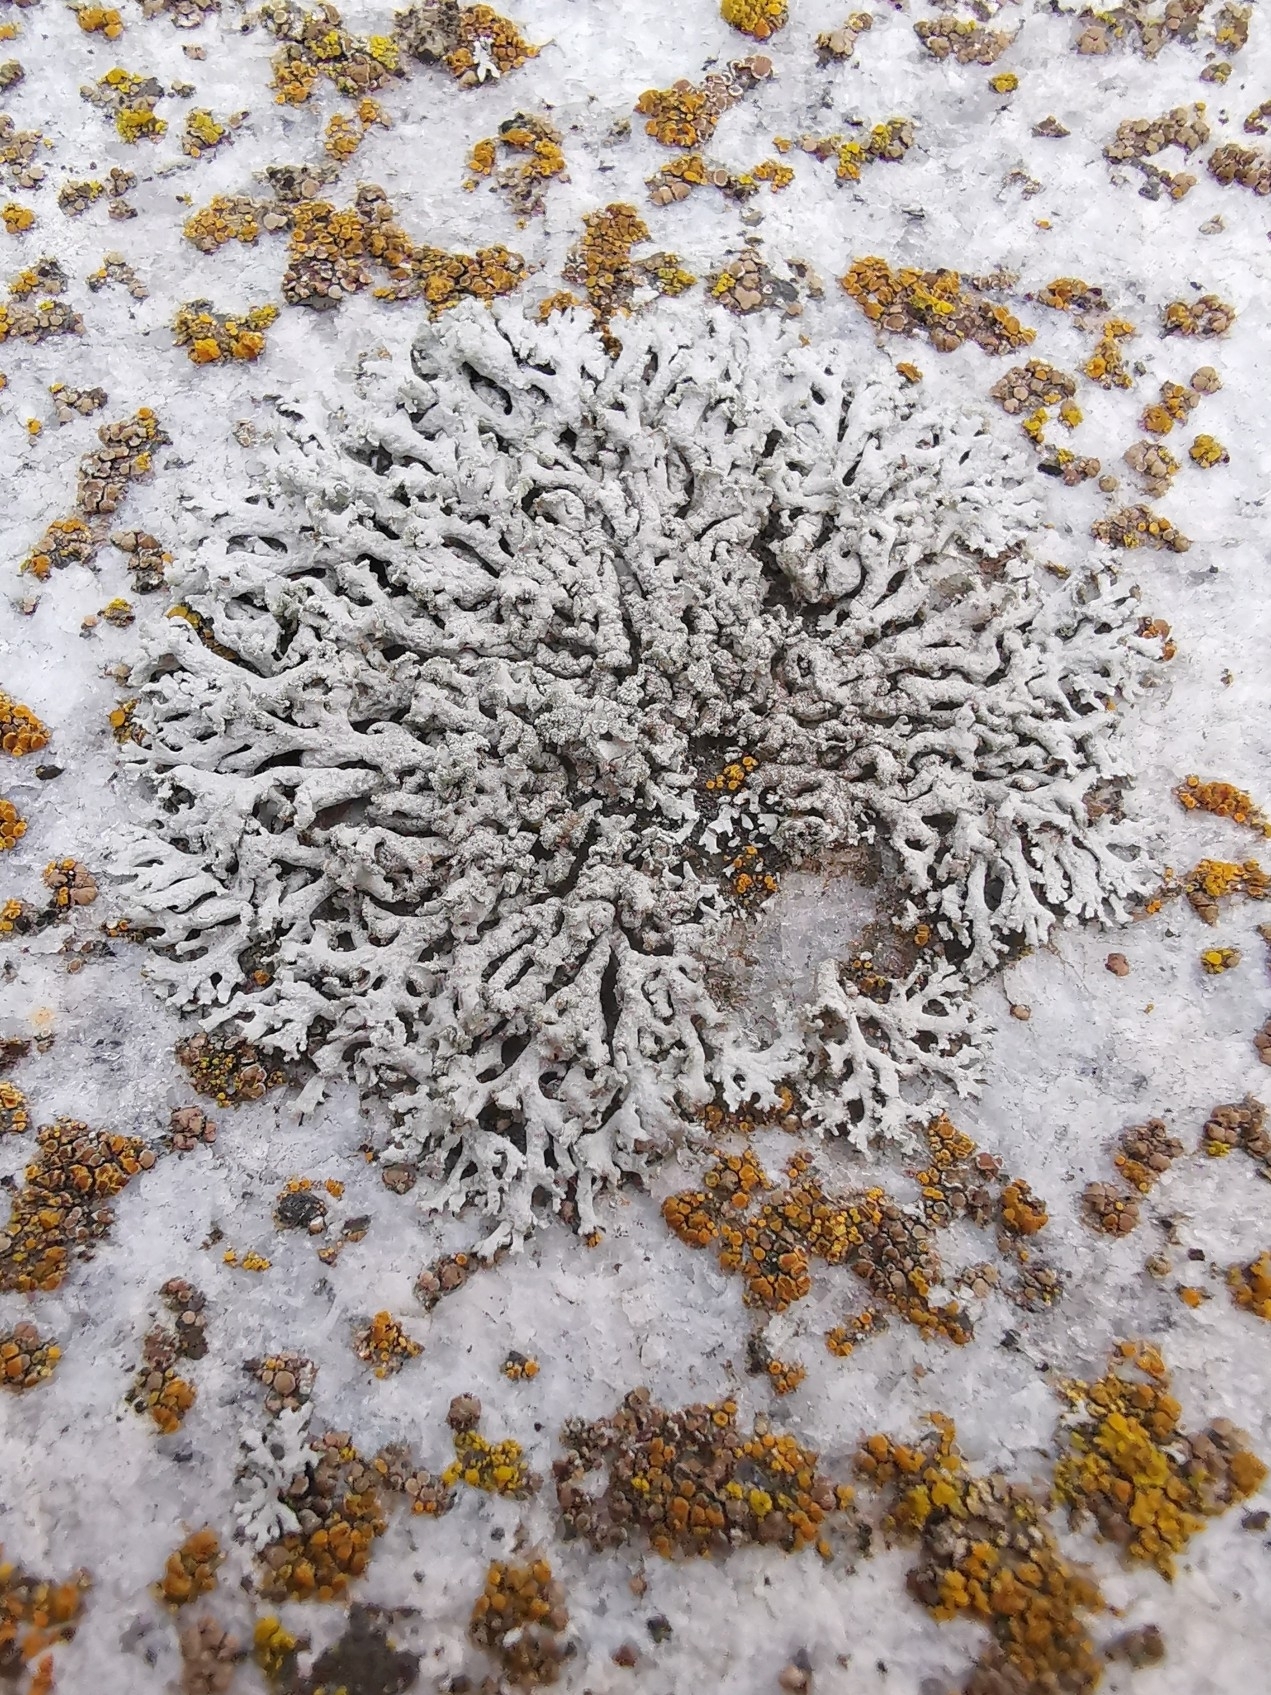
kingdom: Fungi
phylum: Ascomycota
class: Lecanoromycetes
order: Caliciales
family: Physciaceae
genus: Physcia
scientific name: Physcia dubia
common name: Powder-tipped rosette lichen
